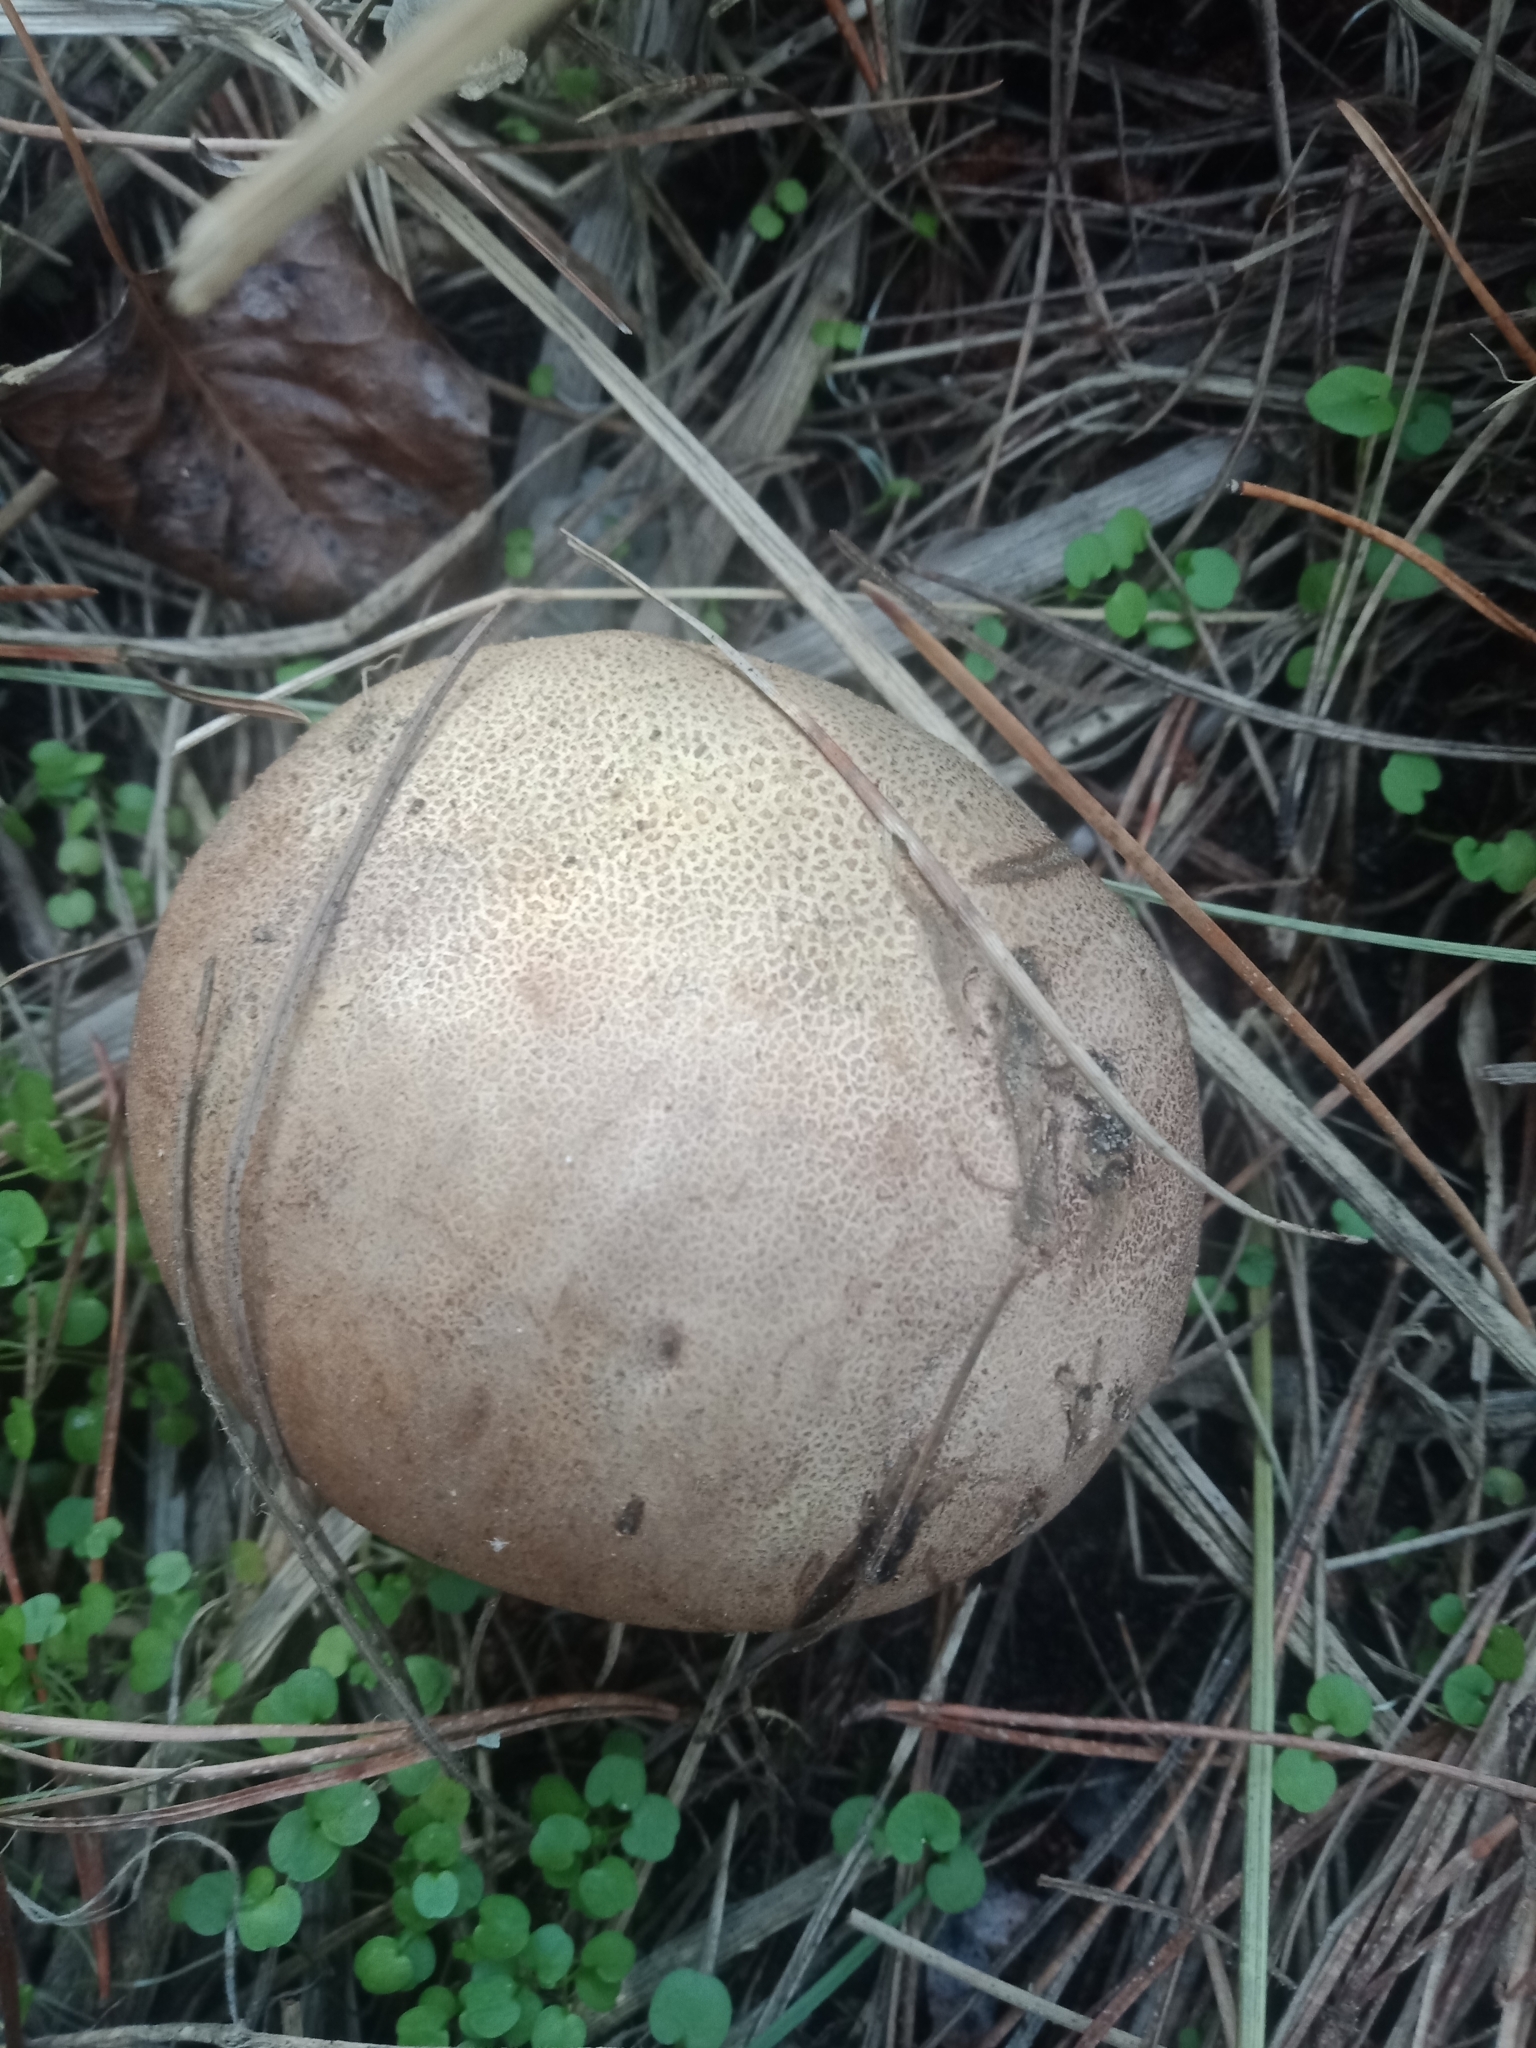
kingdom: Fungi
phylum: Basidiomycota
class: Agaricomycetes
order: Boletales
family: Sclerodermataceae
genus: Scleroderma
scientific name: Scleroderma bovista
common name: Potato earthball
